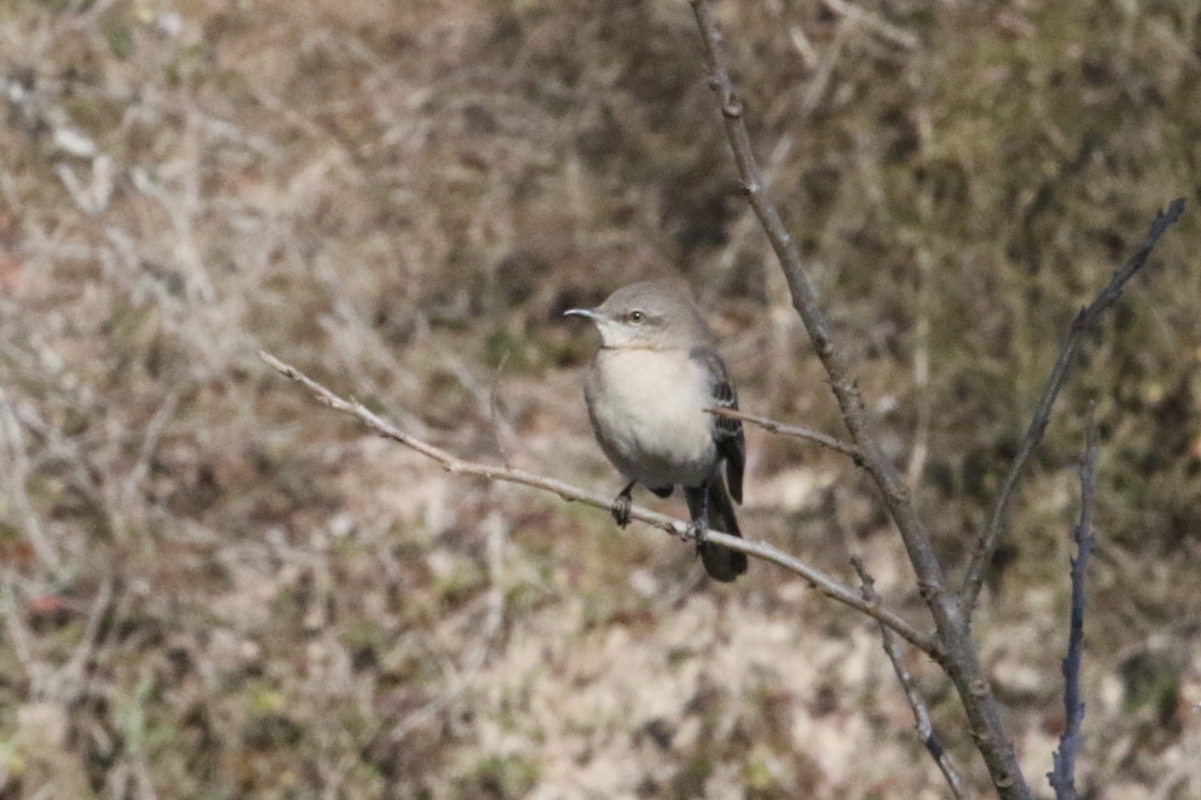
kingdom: Animalia
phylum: Chordata
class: Aves
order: Passeriformes
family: Mimidae
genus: Mimus
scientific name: Mimus polyglottos
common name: Northern mockingbird
